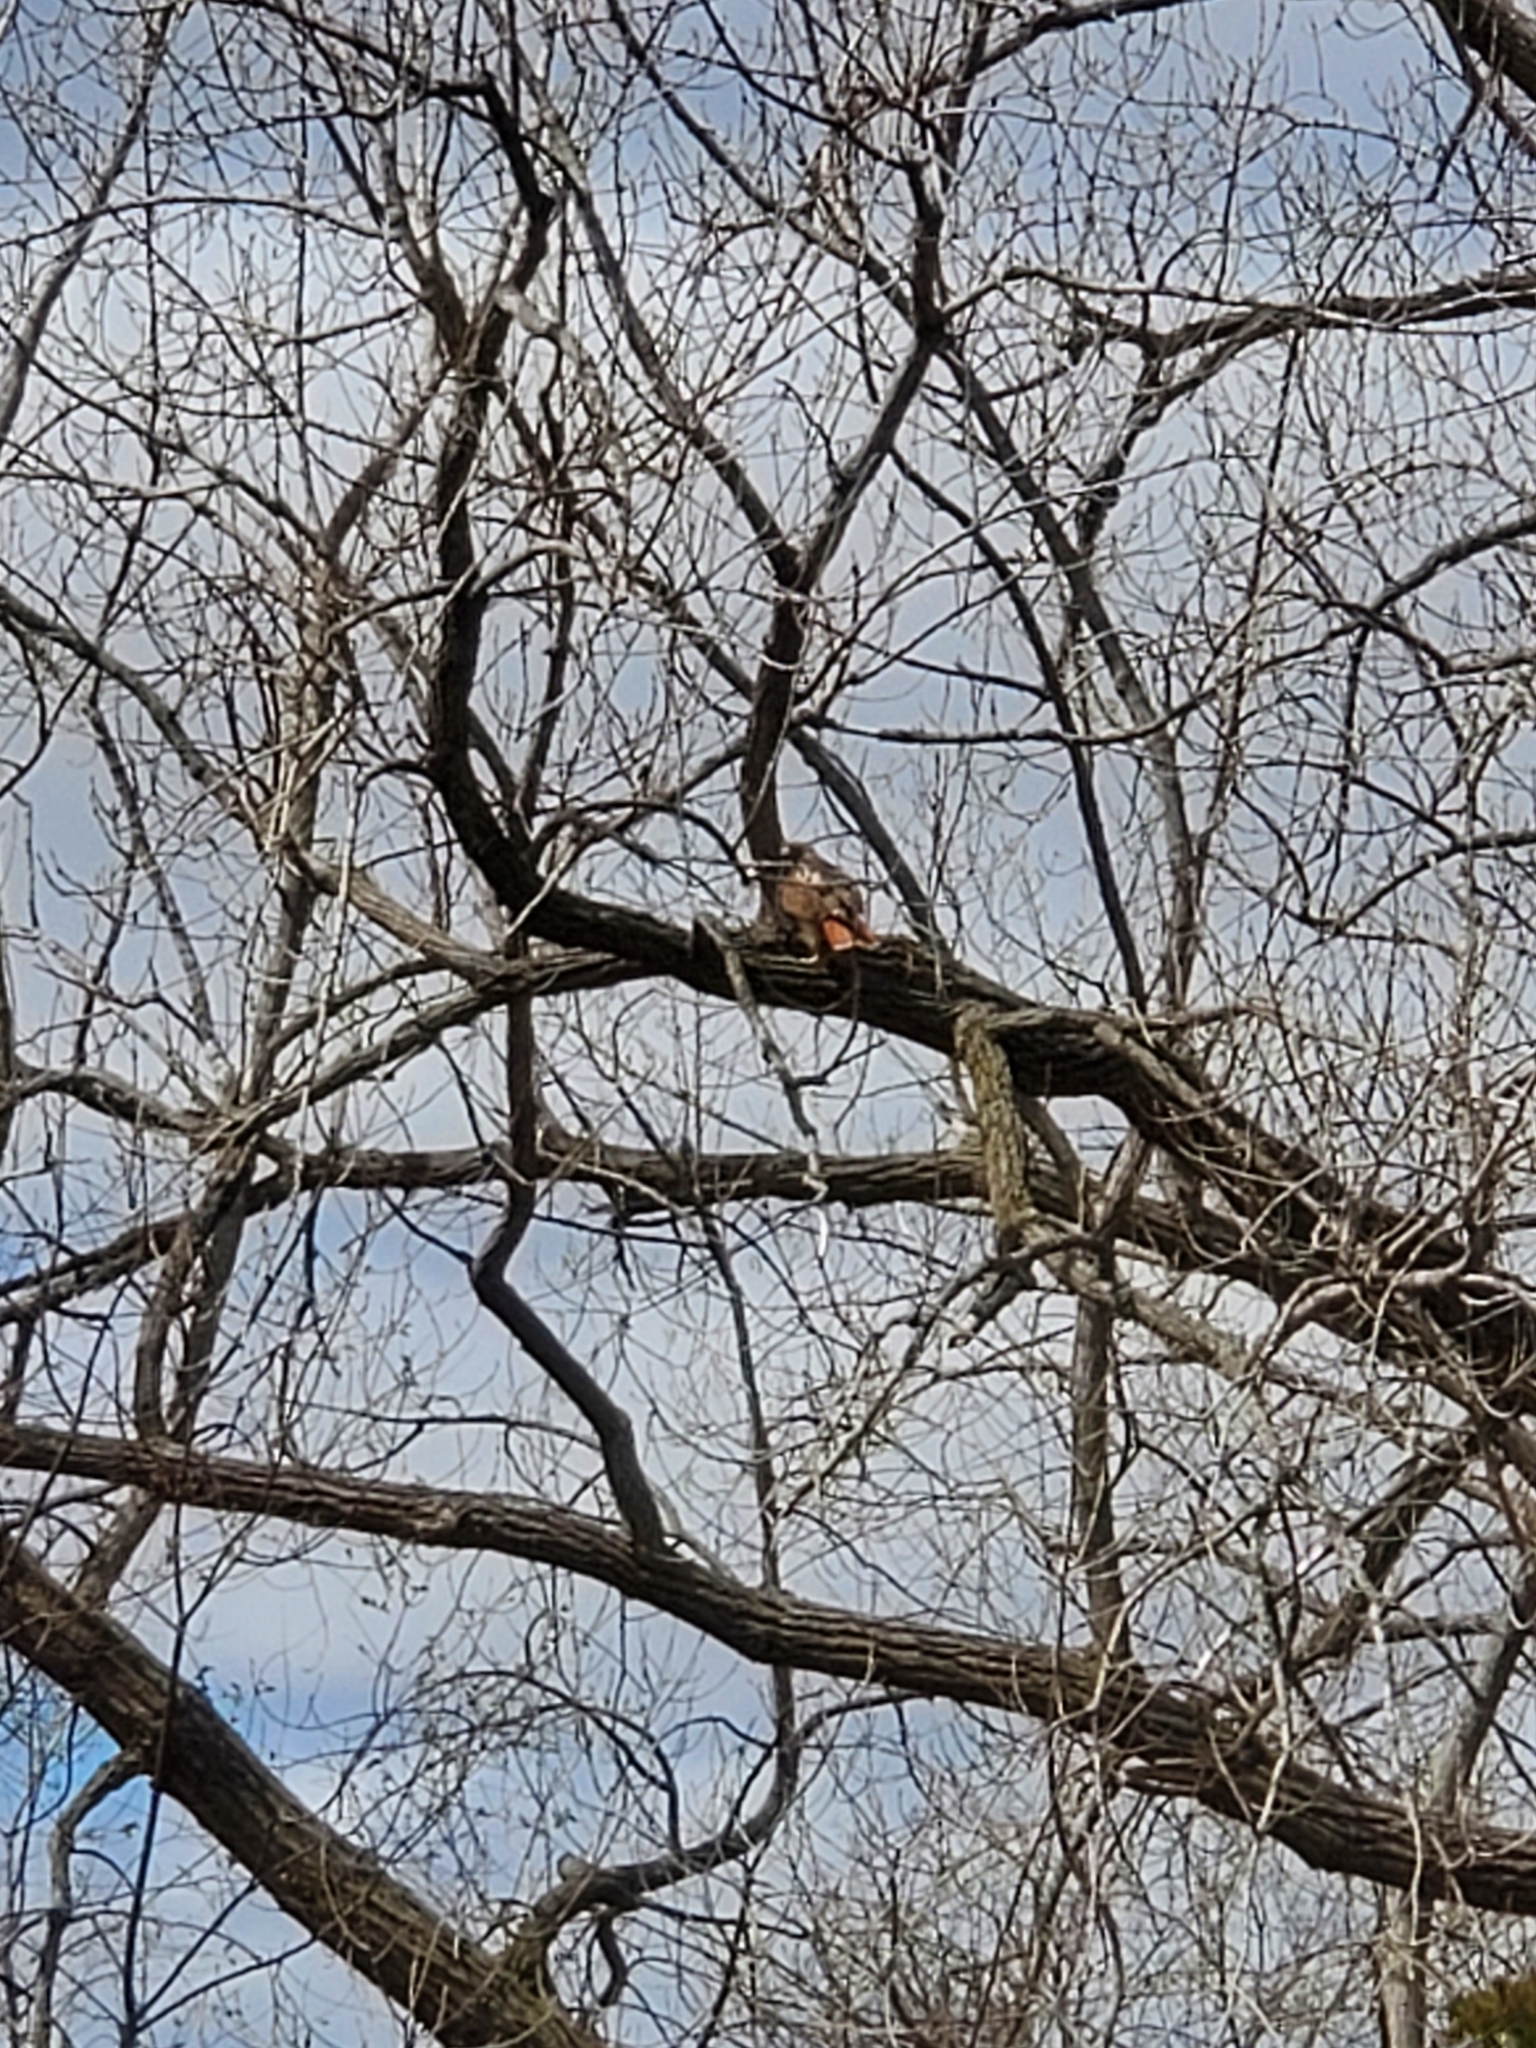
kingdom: Animalia
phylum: Chordata
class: Aves
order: Accipitriformes
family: Accipitridae
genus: Buteo
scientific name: Buteo jamaicensis
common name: Red-tailed hawk
